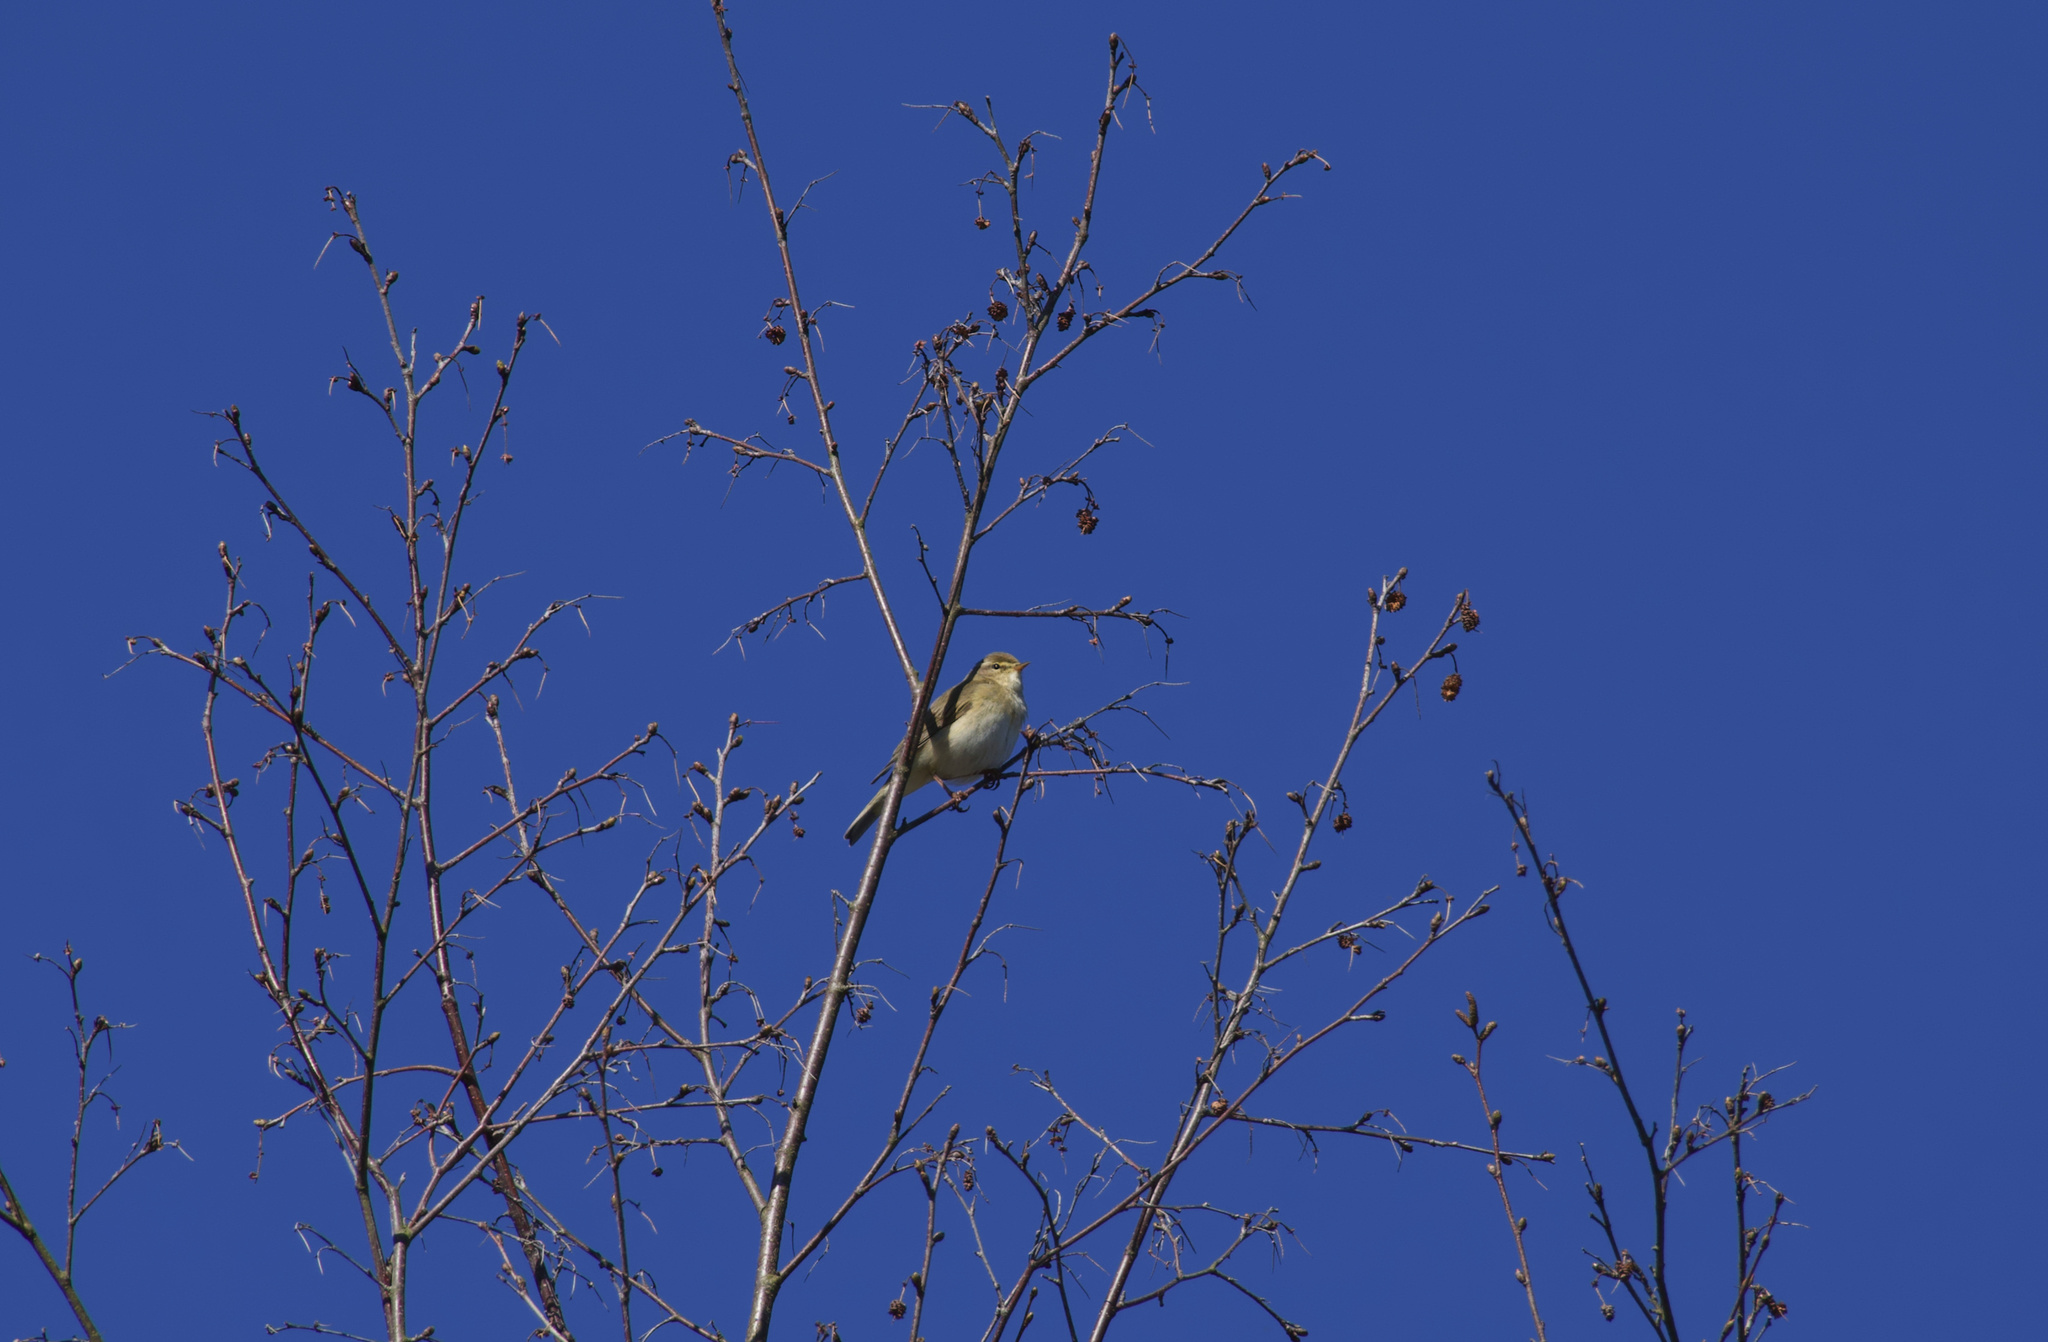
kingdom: Animalia
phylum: Chordata
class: Aves
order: Passeriformes
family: Phylloscopidae
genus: Phylloscopus
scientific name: Phylloscopus trochilus
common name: Willow warbler
